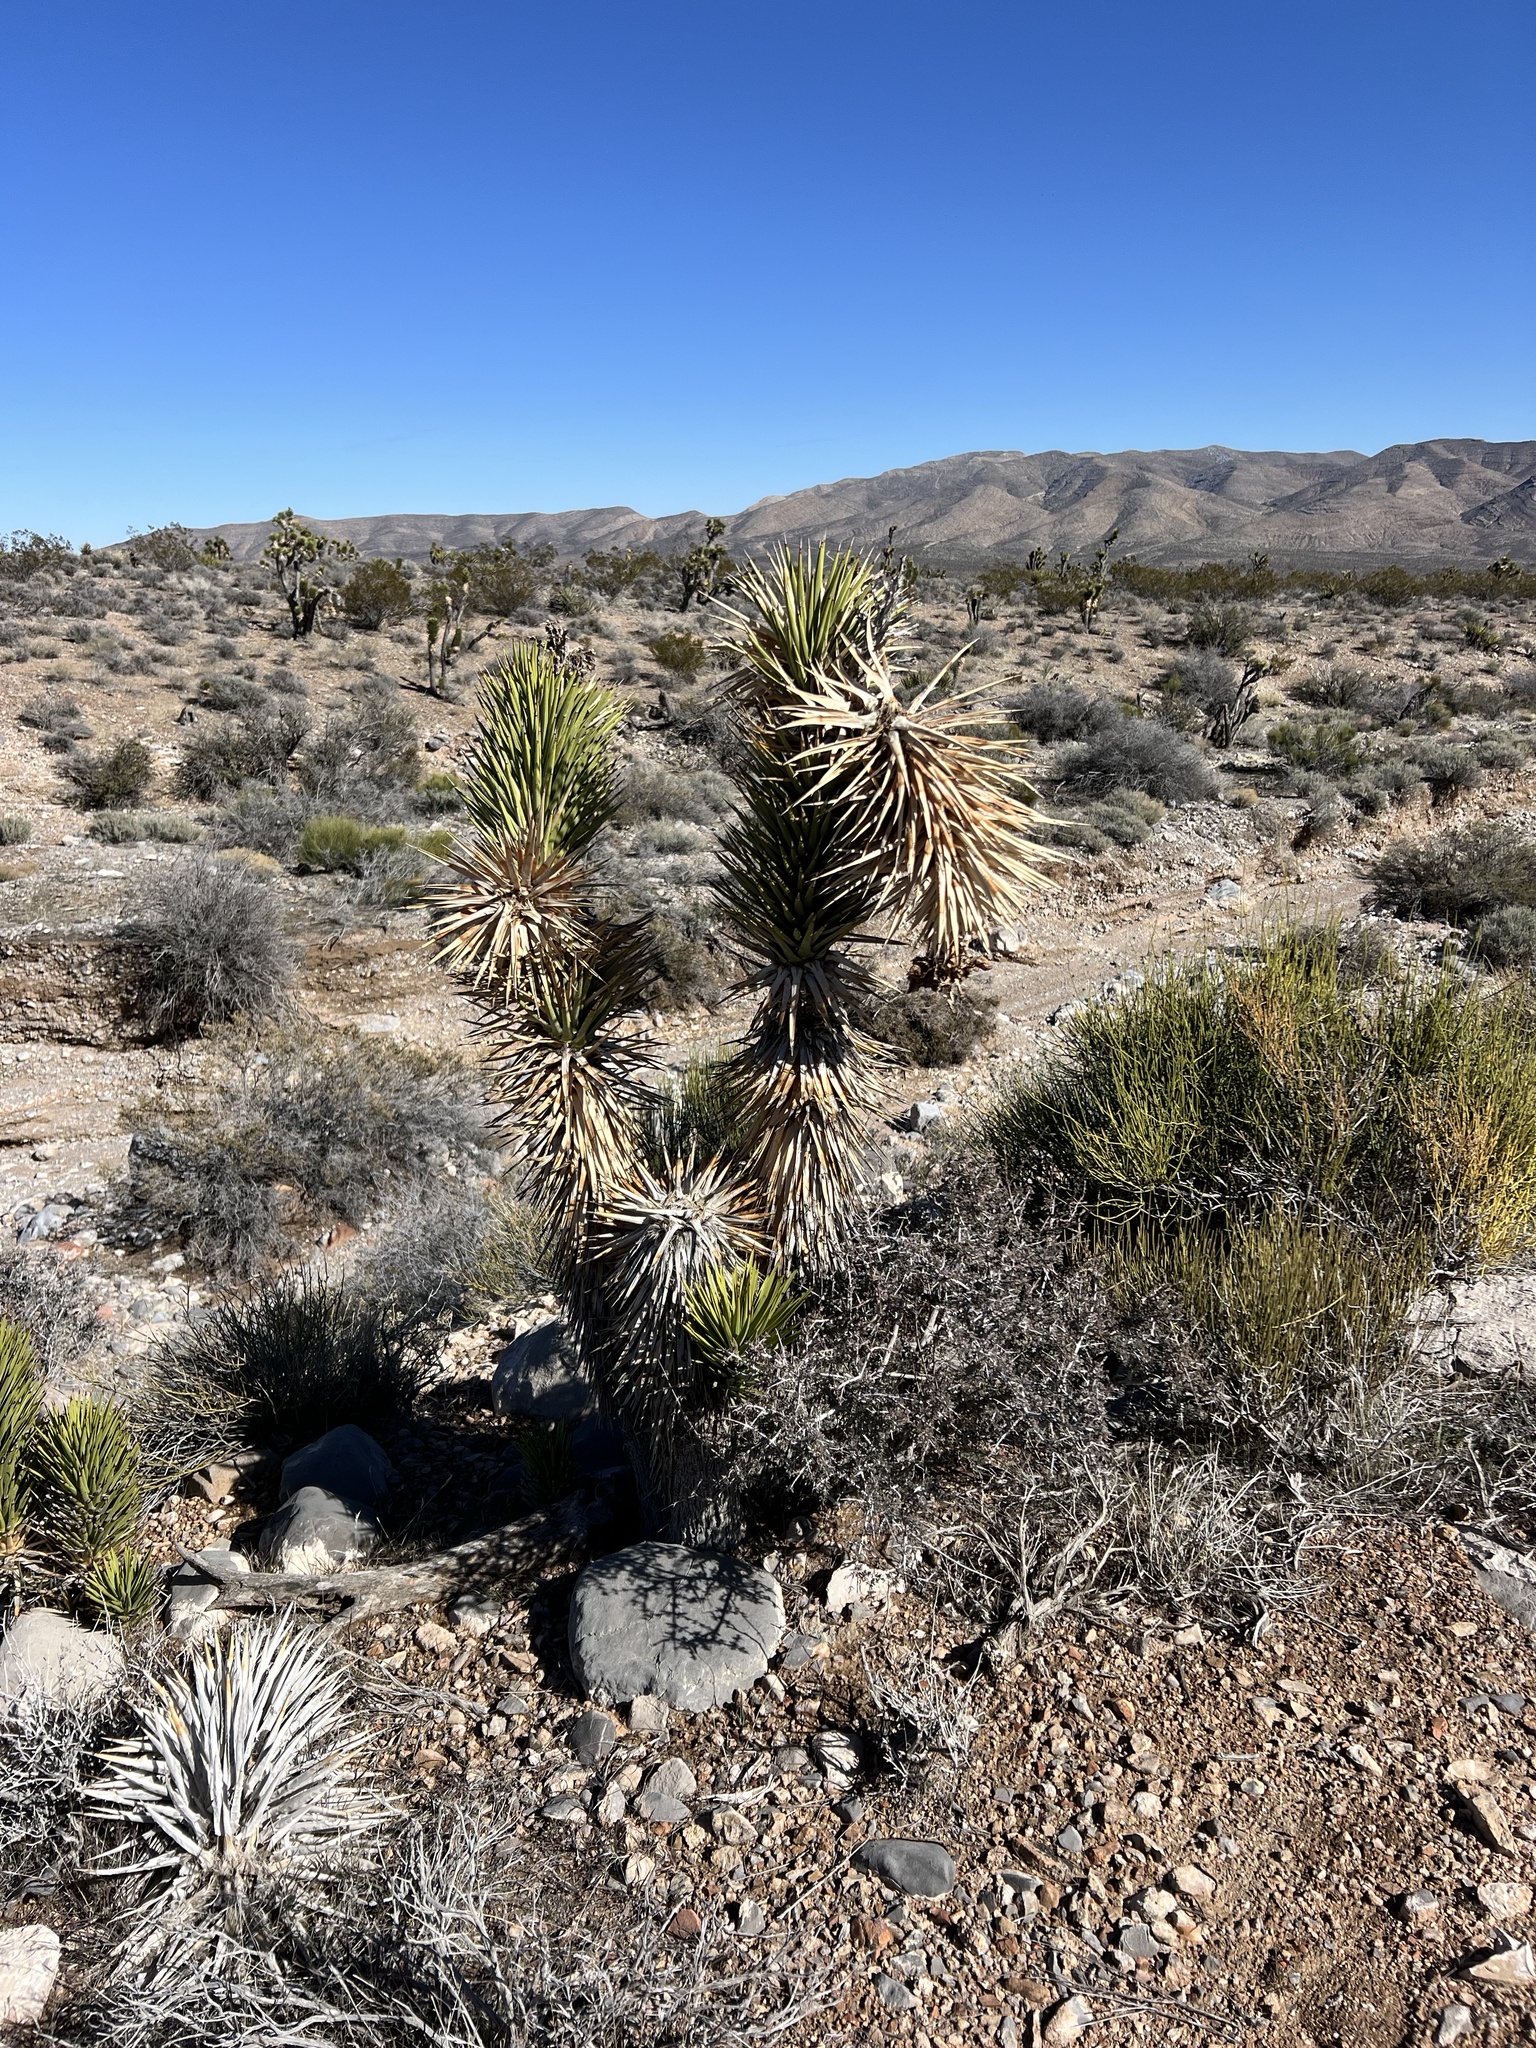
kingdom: Plantae
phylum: Tracheophyta
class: Liliopsida
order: Asparagales
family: Asparagaceae
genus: Yucca
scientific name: Yucca brevifolia
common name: Joshua tree
